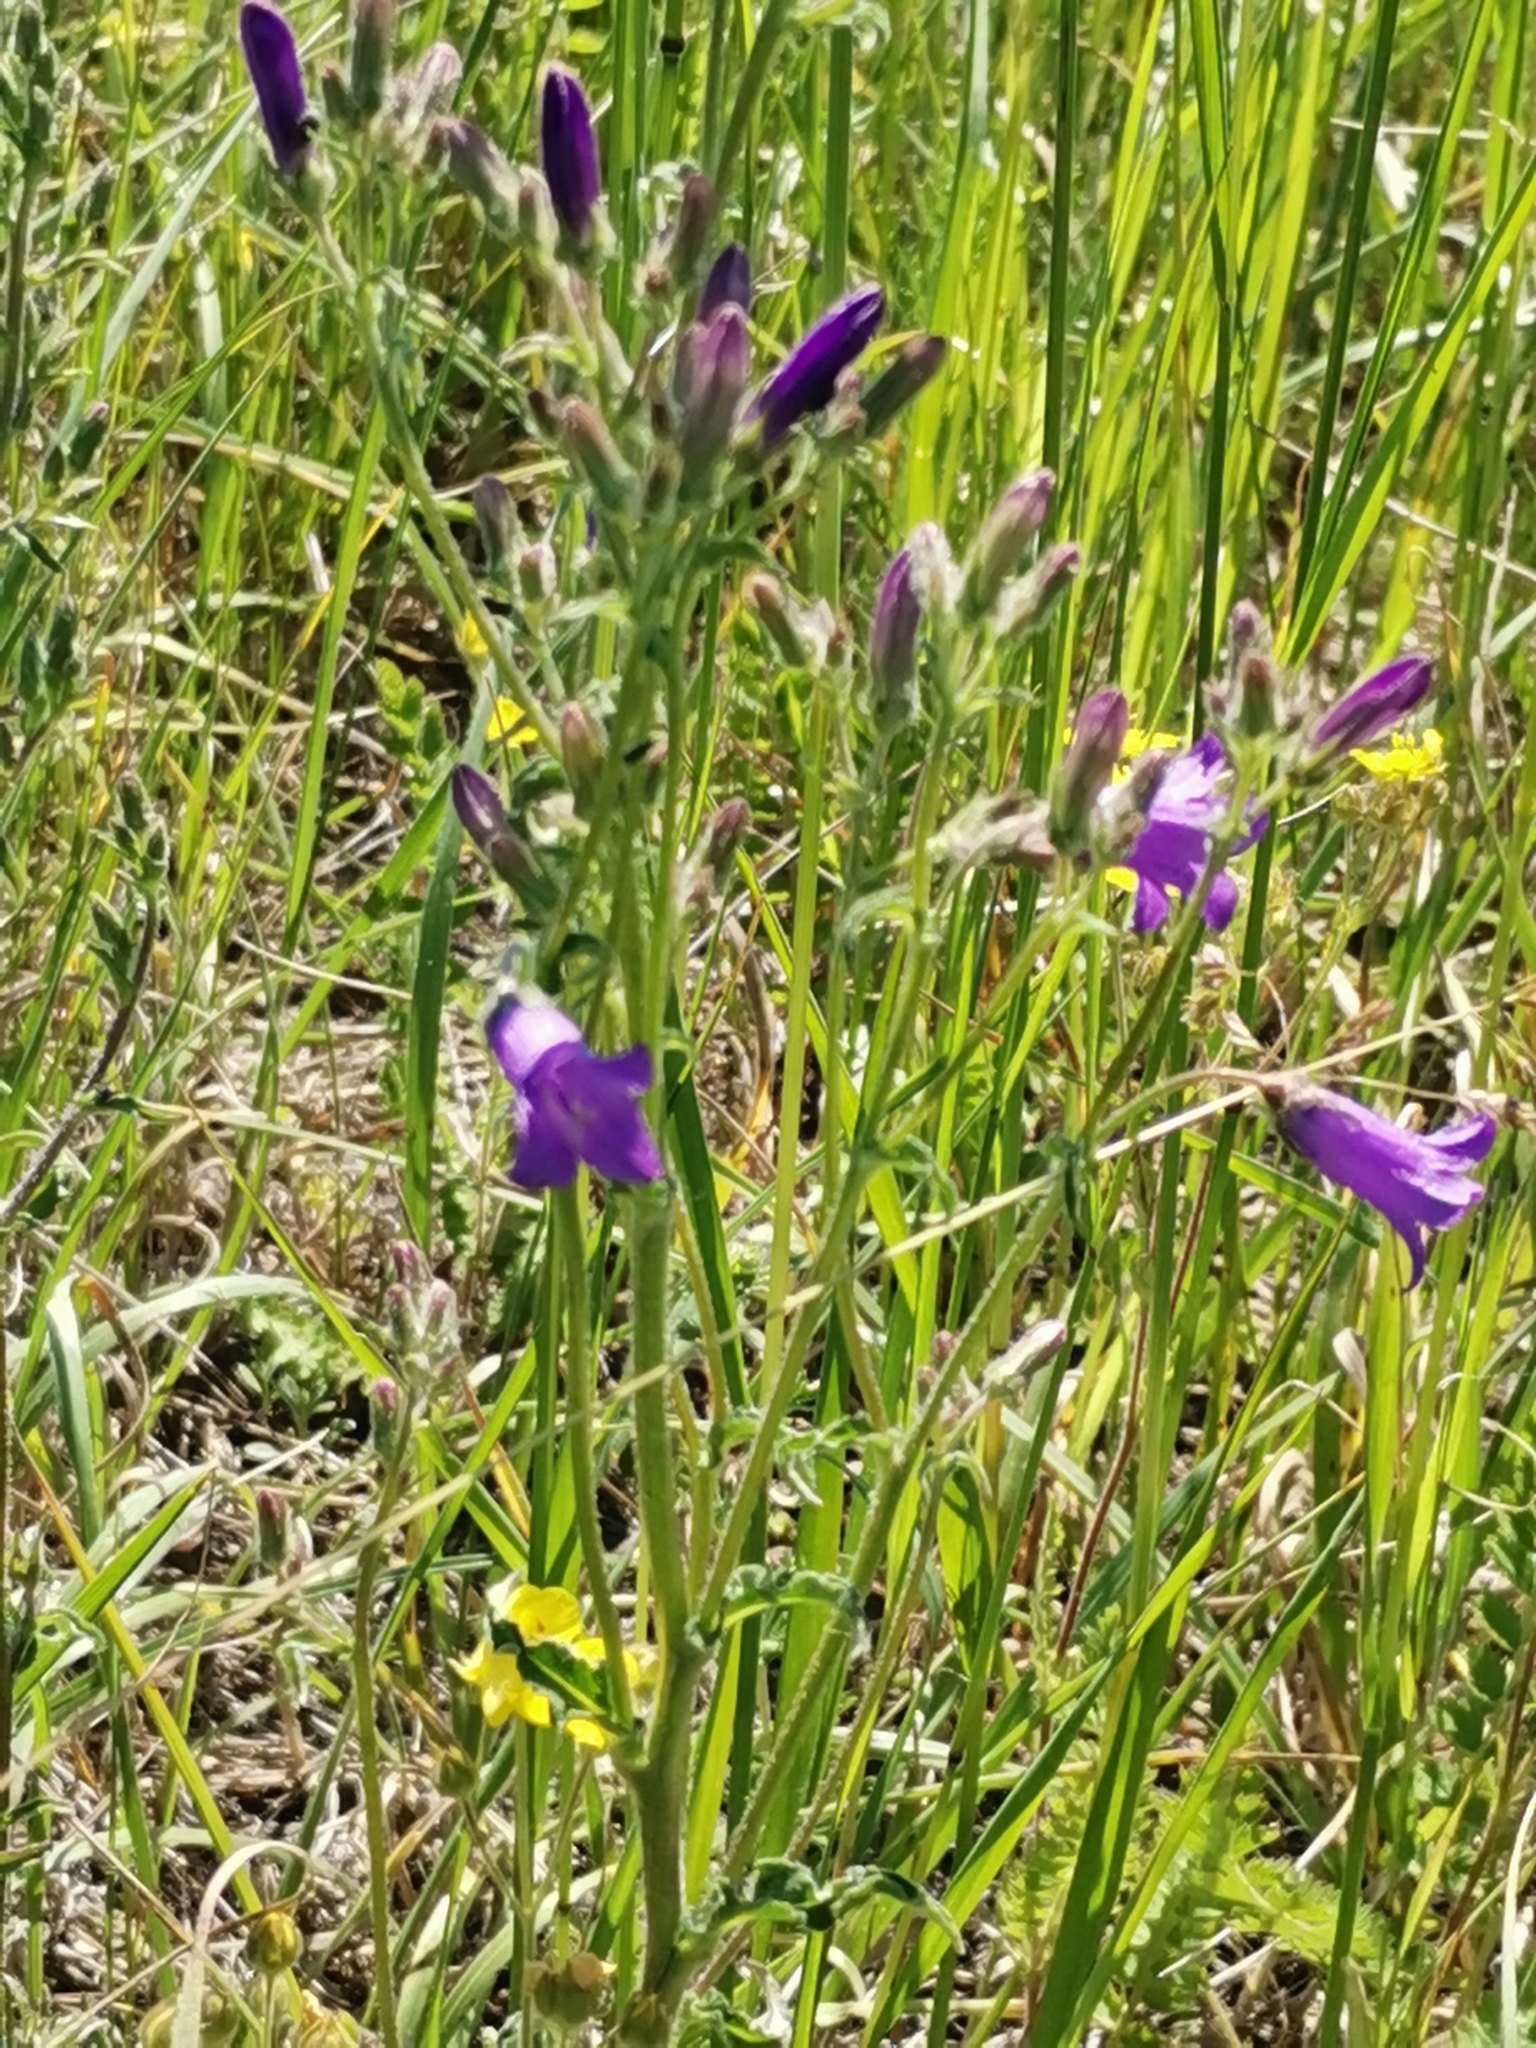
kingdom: Plantae
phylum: Tracheophyta
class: Magnoliopsida
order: Asterales
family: Campanulaceae
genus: Campanula
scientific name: Campanula sibirica
